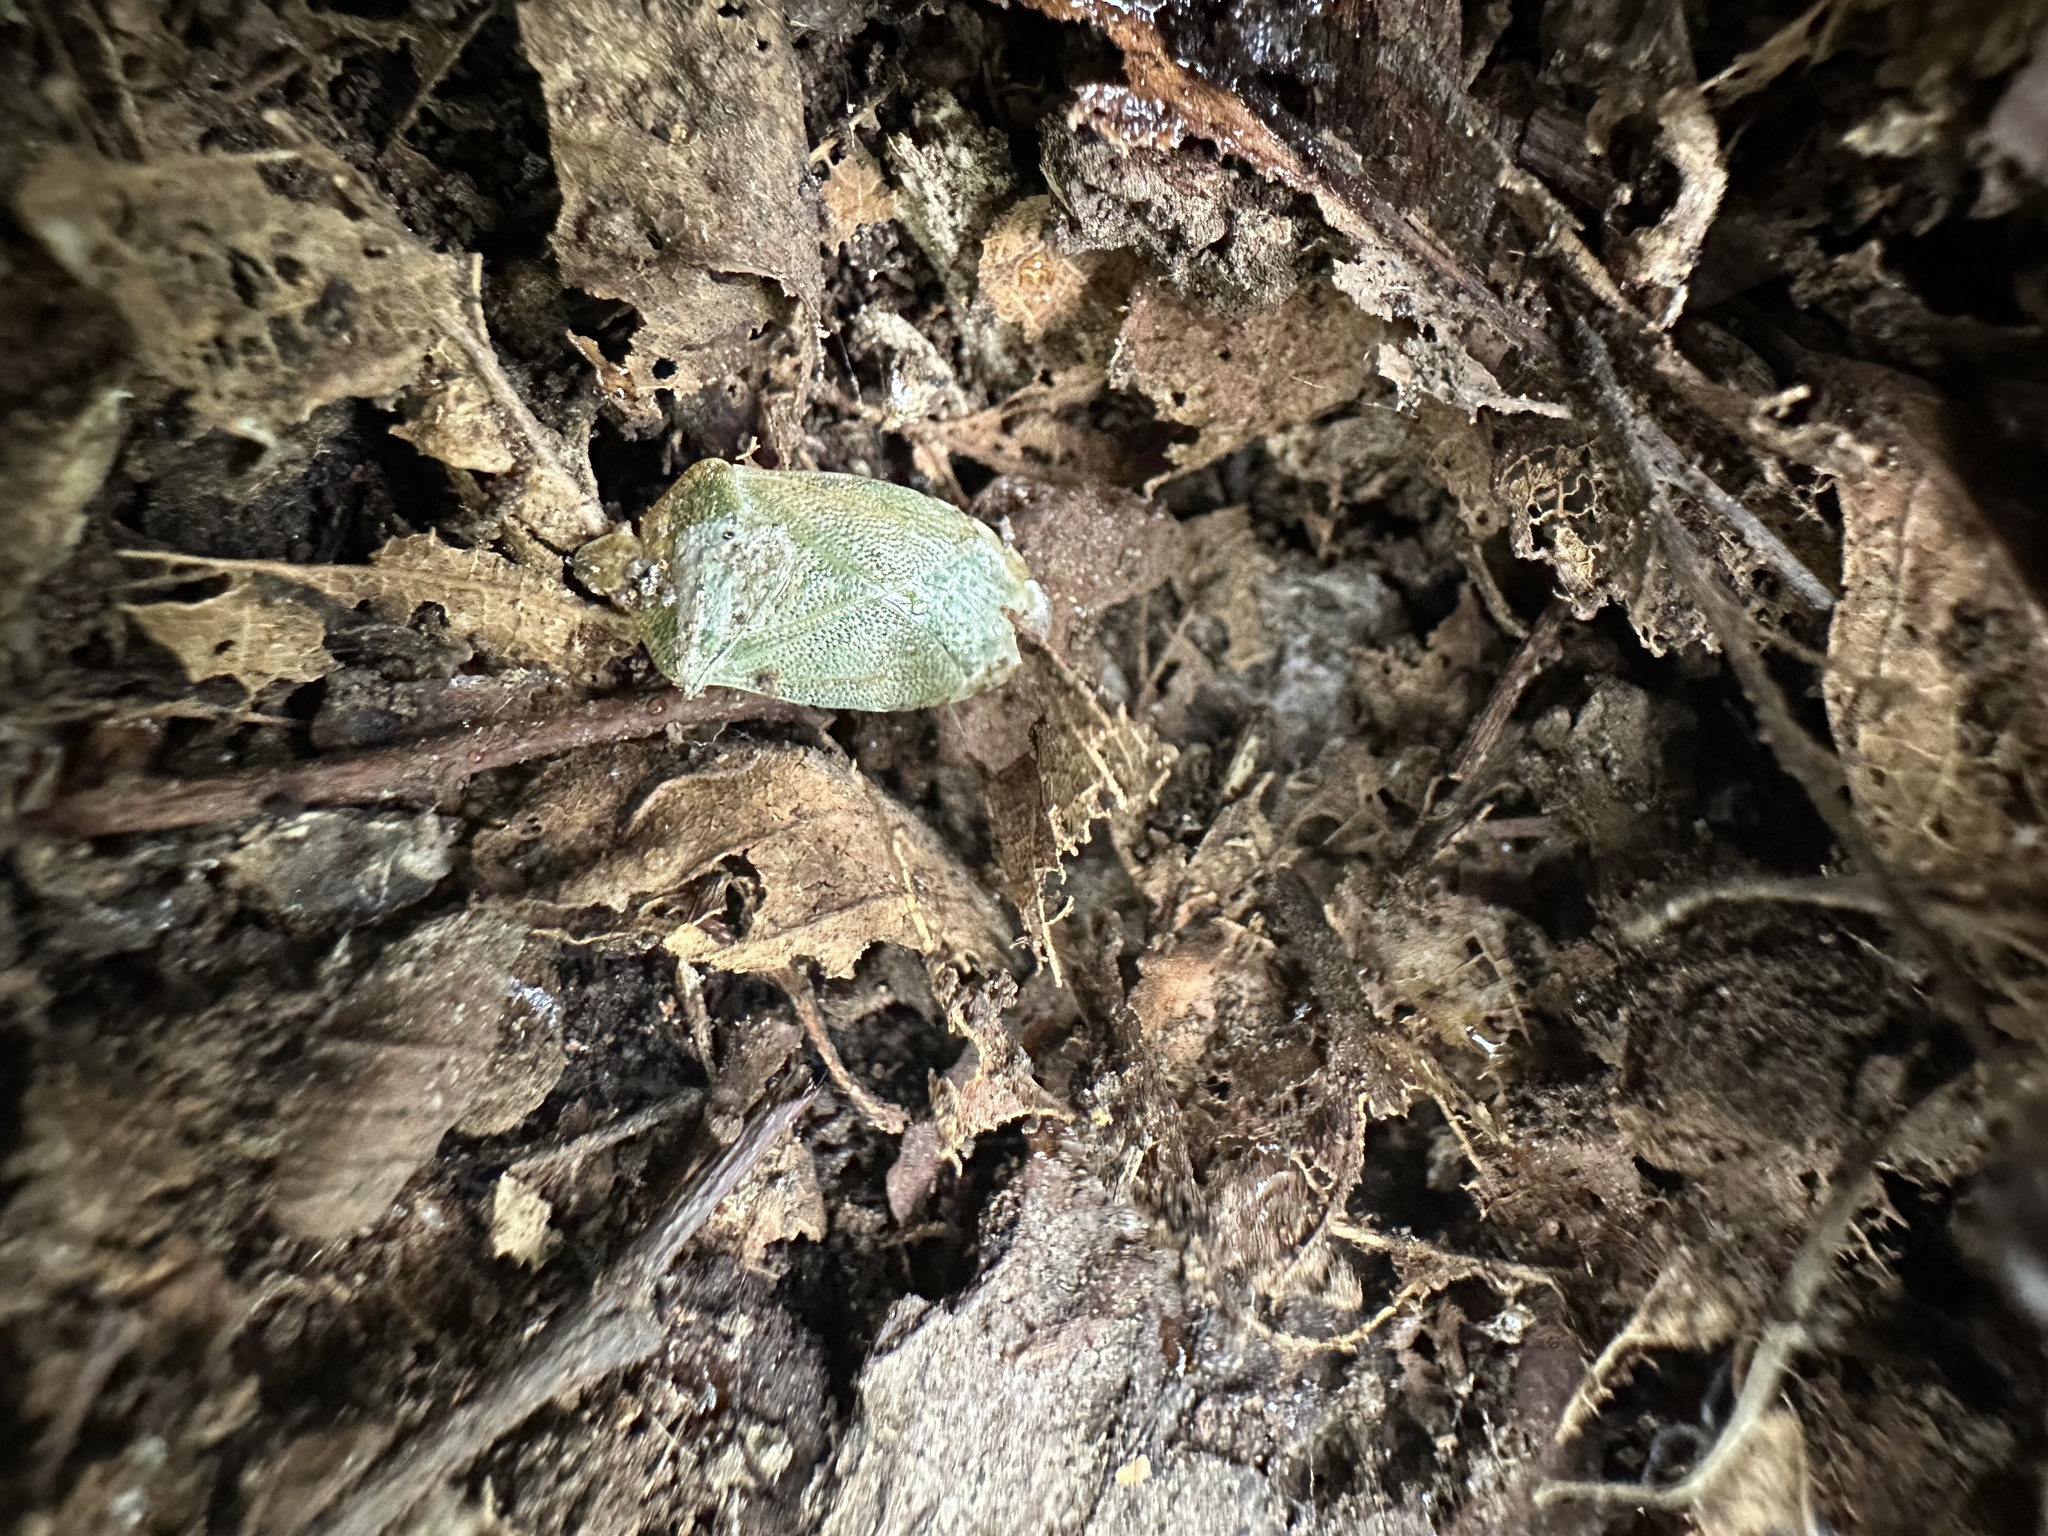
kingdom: Animalia
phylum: Arthropoda
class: Insecta
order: Hemiptera
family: Acanthosomatidae
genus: Sinopla
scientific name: Sinopla perpunctatus
